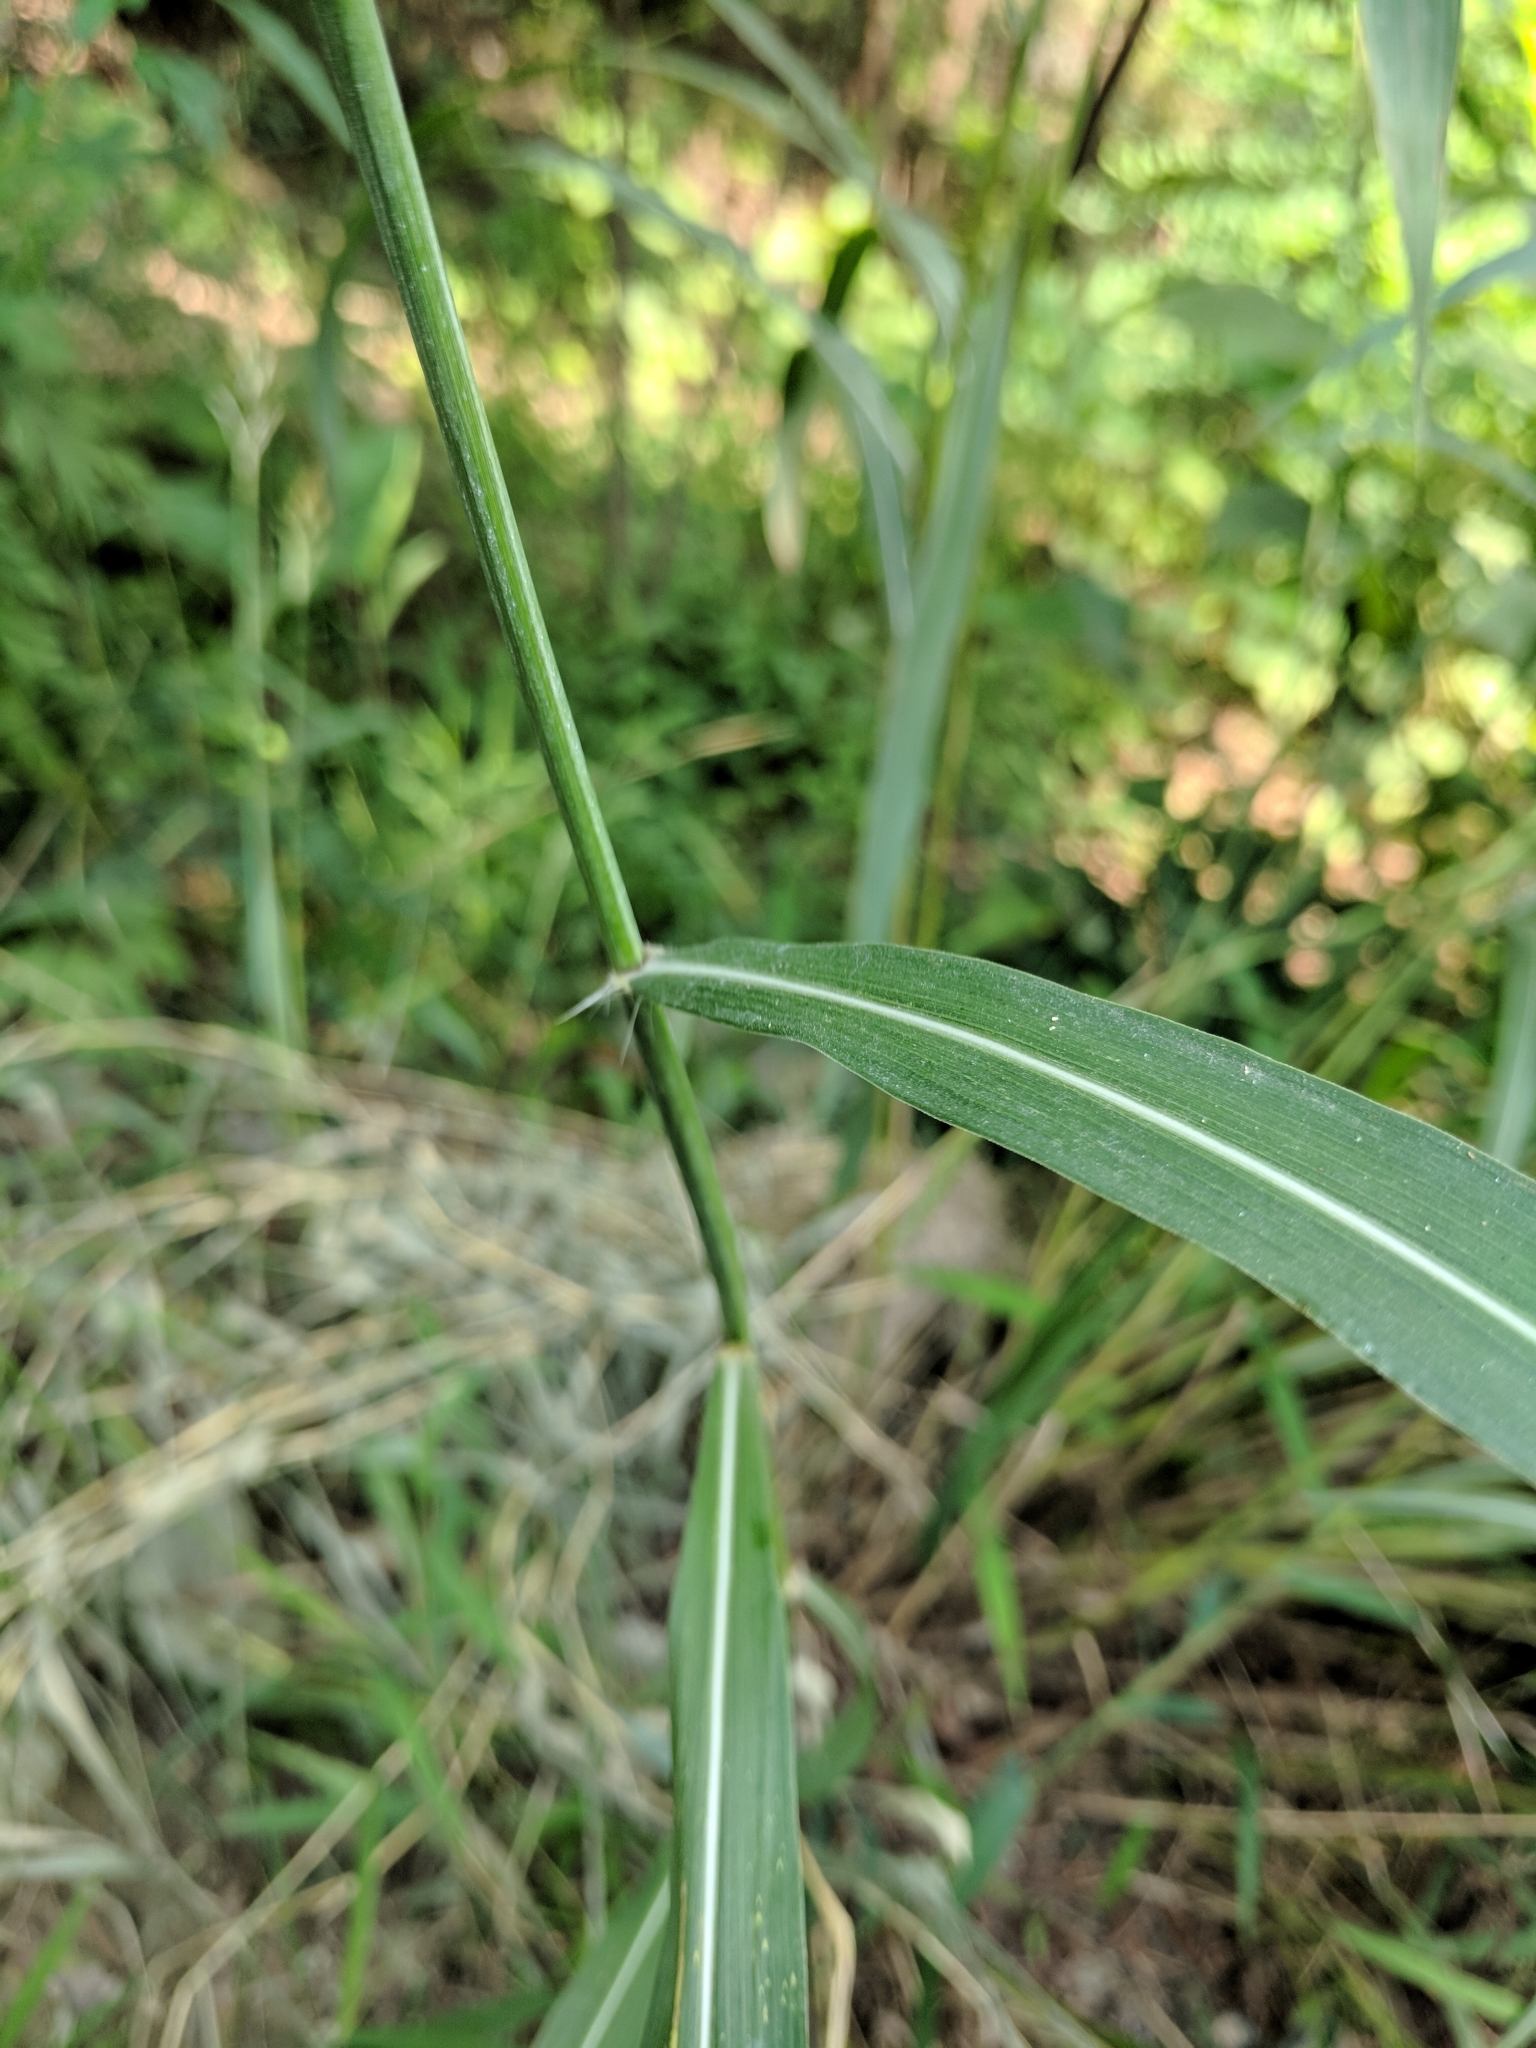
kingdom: Plantae
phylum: Tracheophyta
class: Liliopsida
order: Poales
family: Poaceae
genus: Spodiopogon
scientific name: Spodiopogon sibiricus
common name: Siberian graybeard
